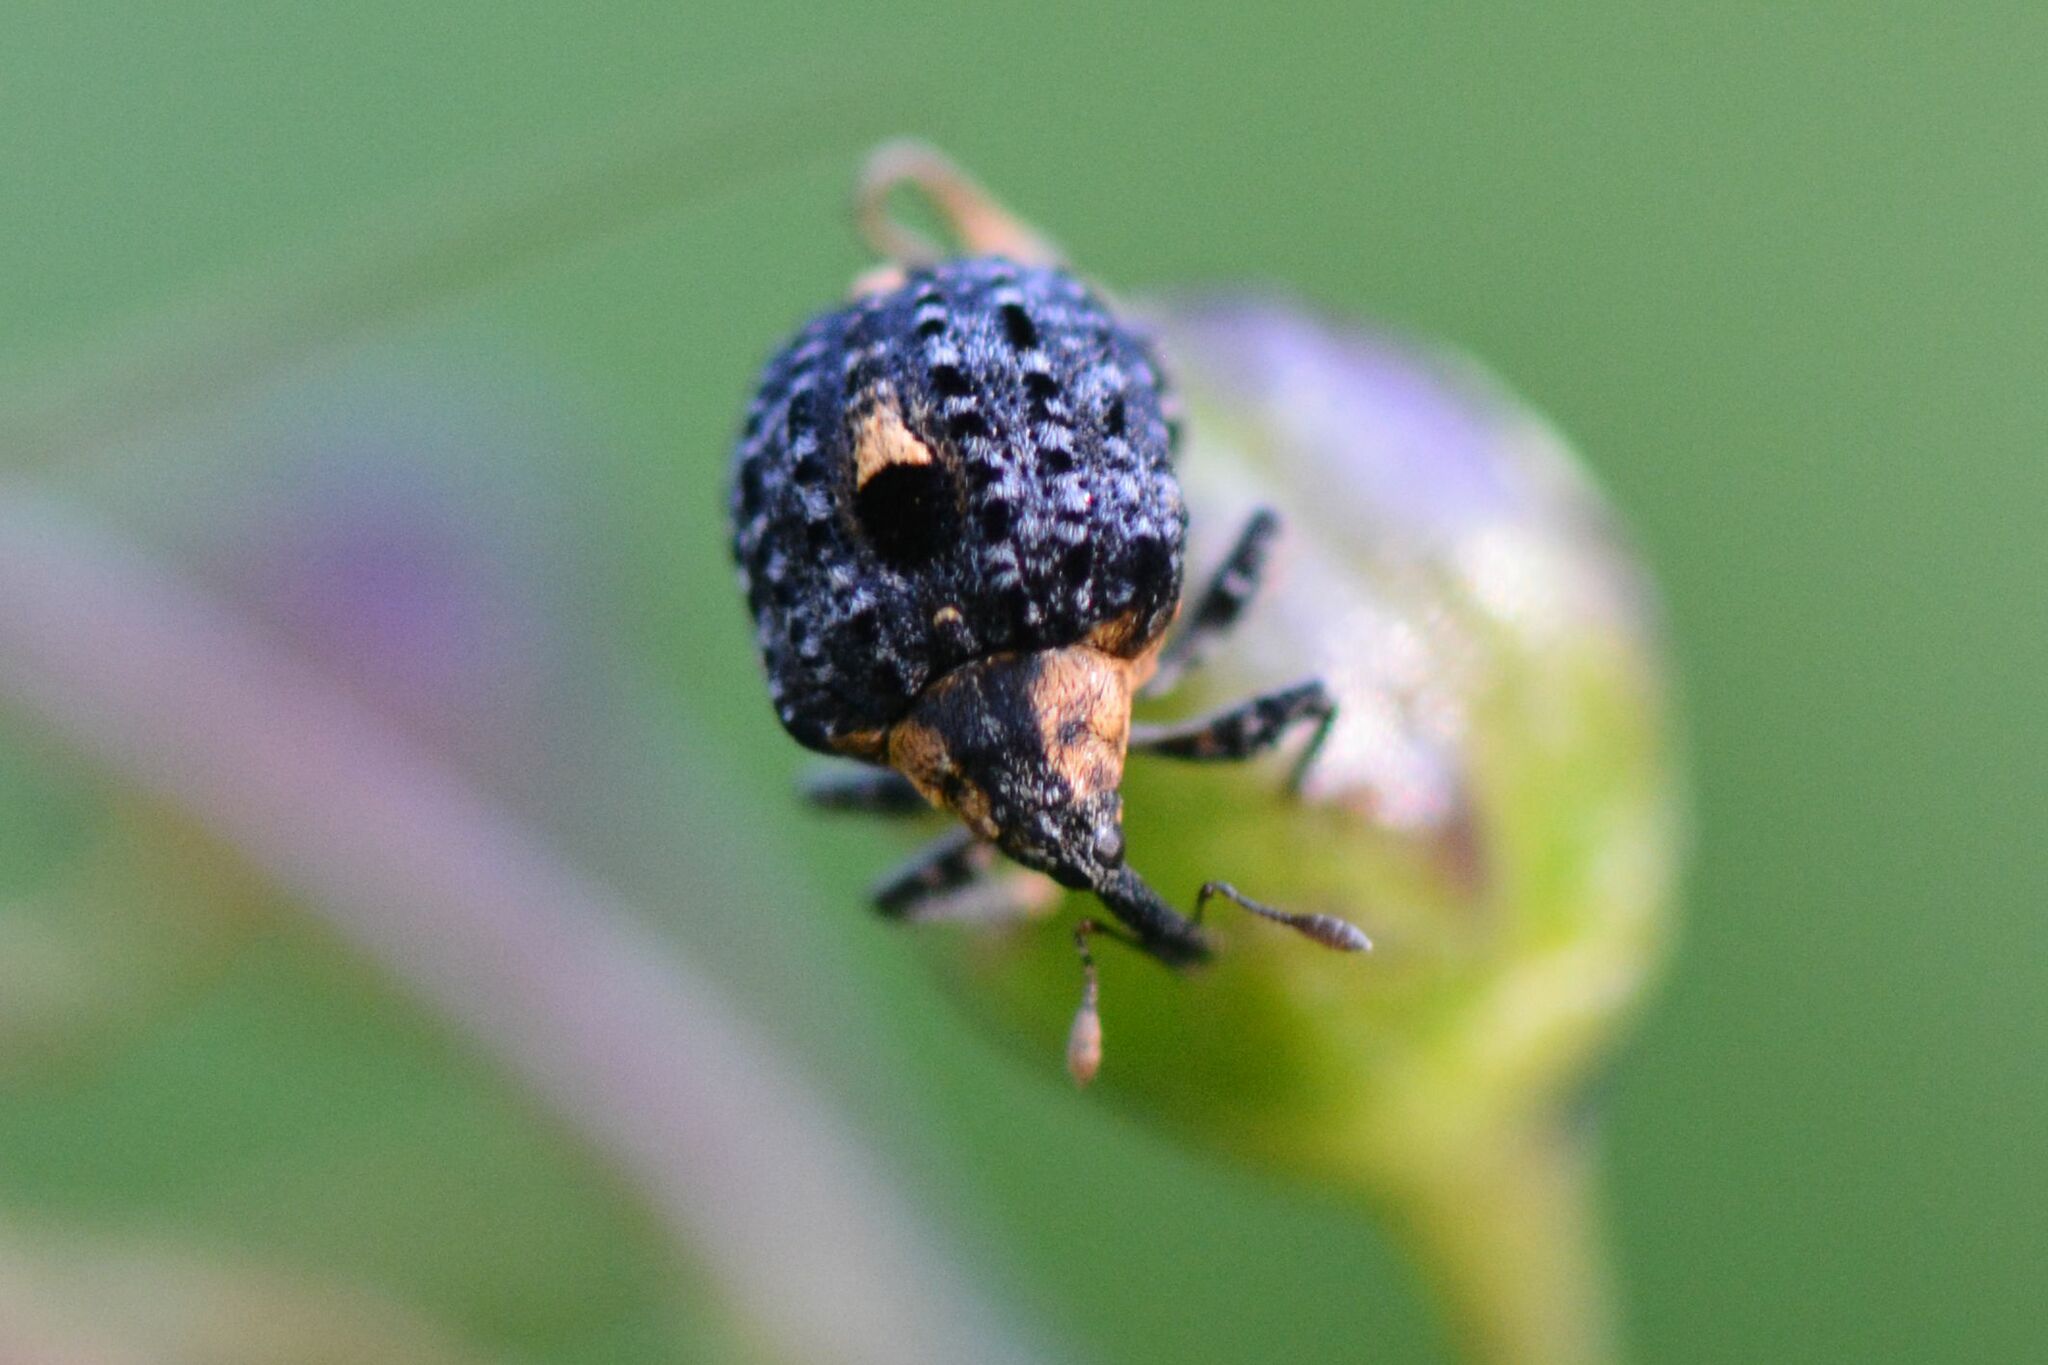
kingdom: Animalia
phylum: Arthropoda
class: Insecta
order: Coleoptera
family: Curculionidae
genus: Cionus
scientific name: Cionus tuberculosus
